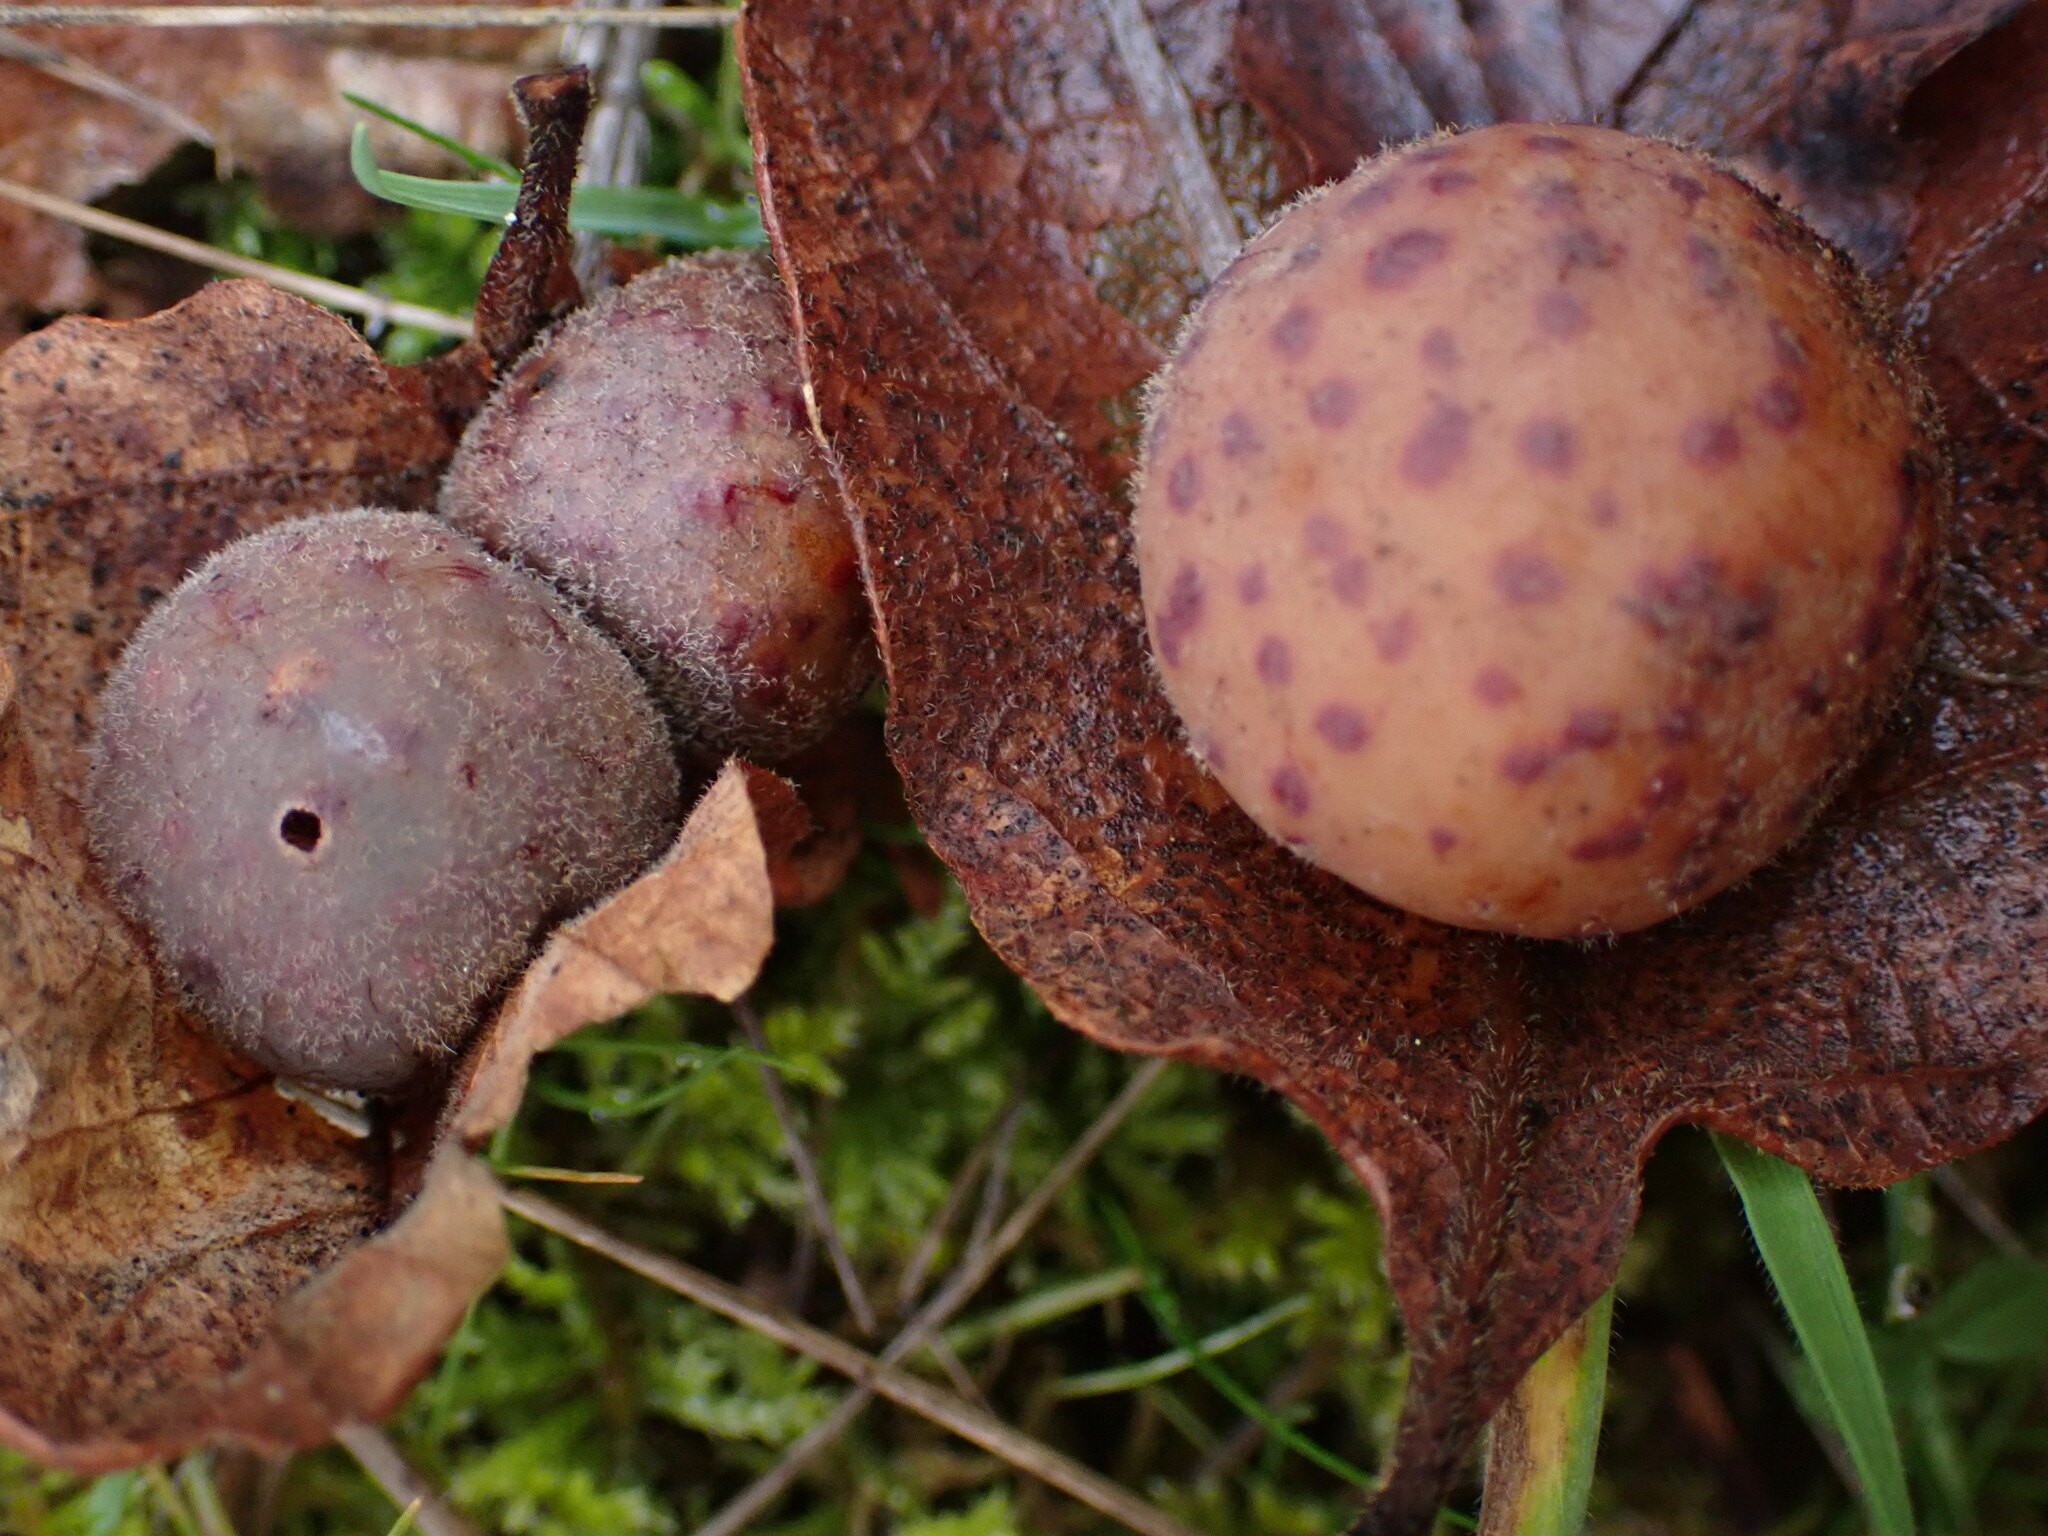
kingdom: Animalia
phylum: Arthropoda
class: Insecta
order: Hymenoptera
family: Cynipidae
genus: Cynips
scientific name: Cynips
